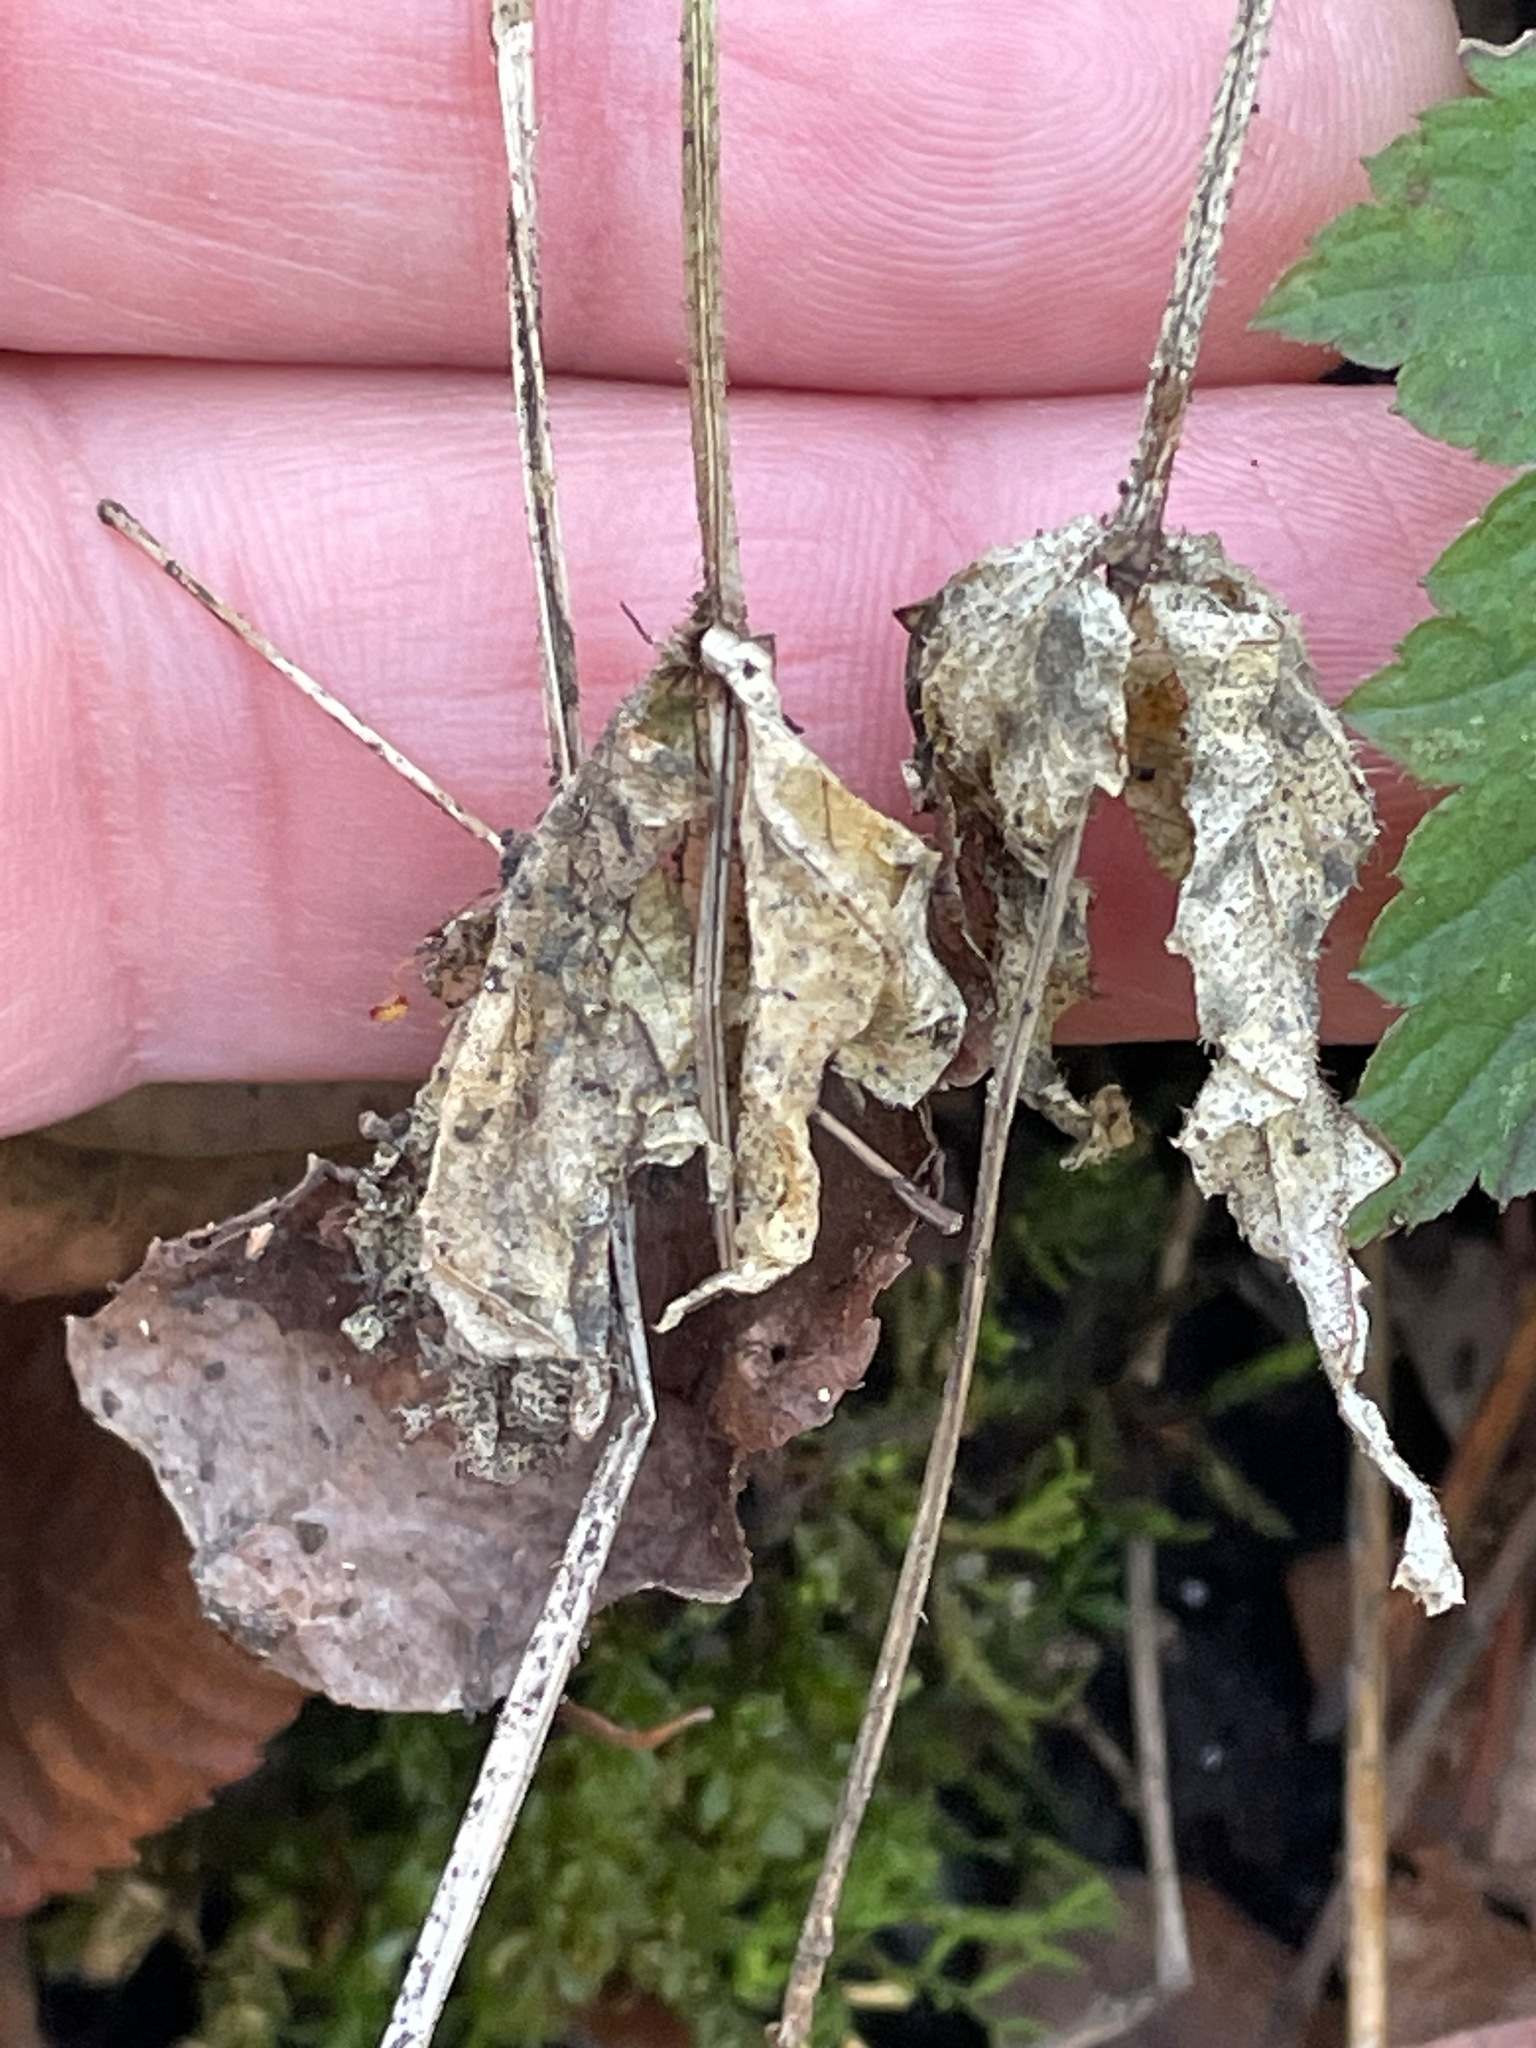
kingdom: Plantae
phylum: Tracheophyta
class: Magnoliopsida
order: Saxifragales
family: Saxifragaceae
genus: Mitella
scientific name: Mitella diphylla
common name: Coolwort
